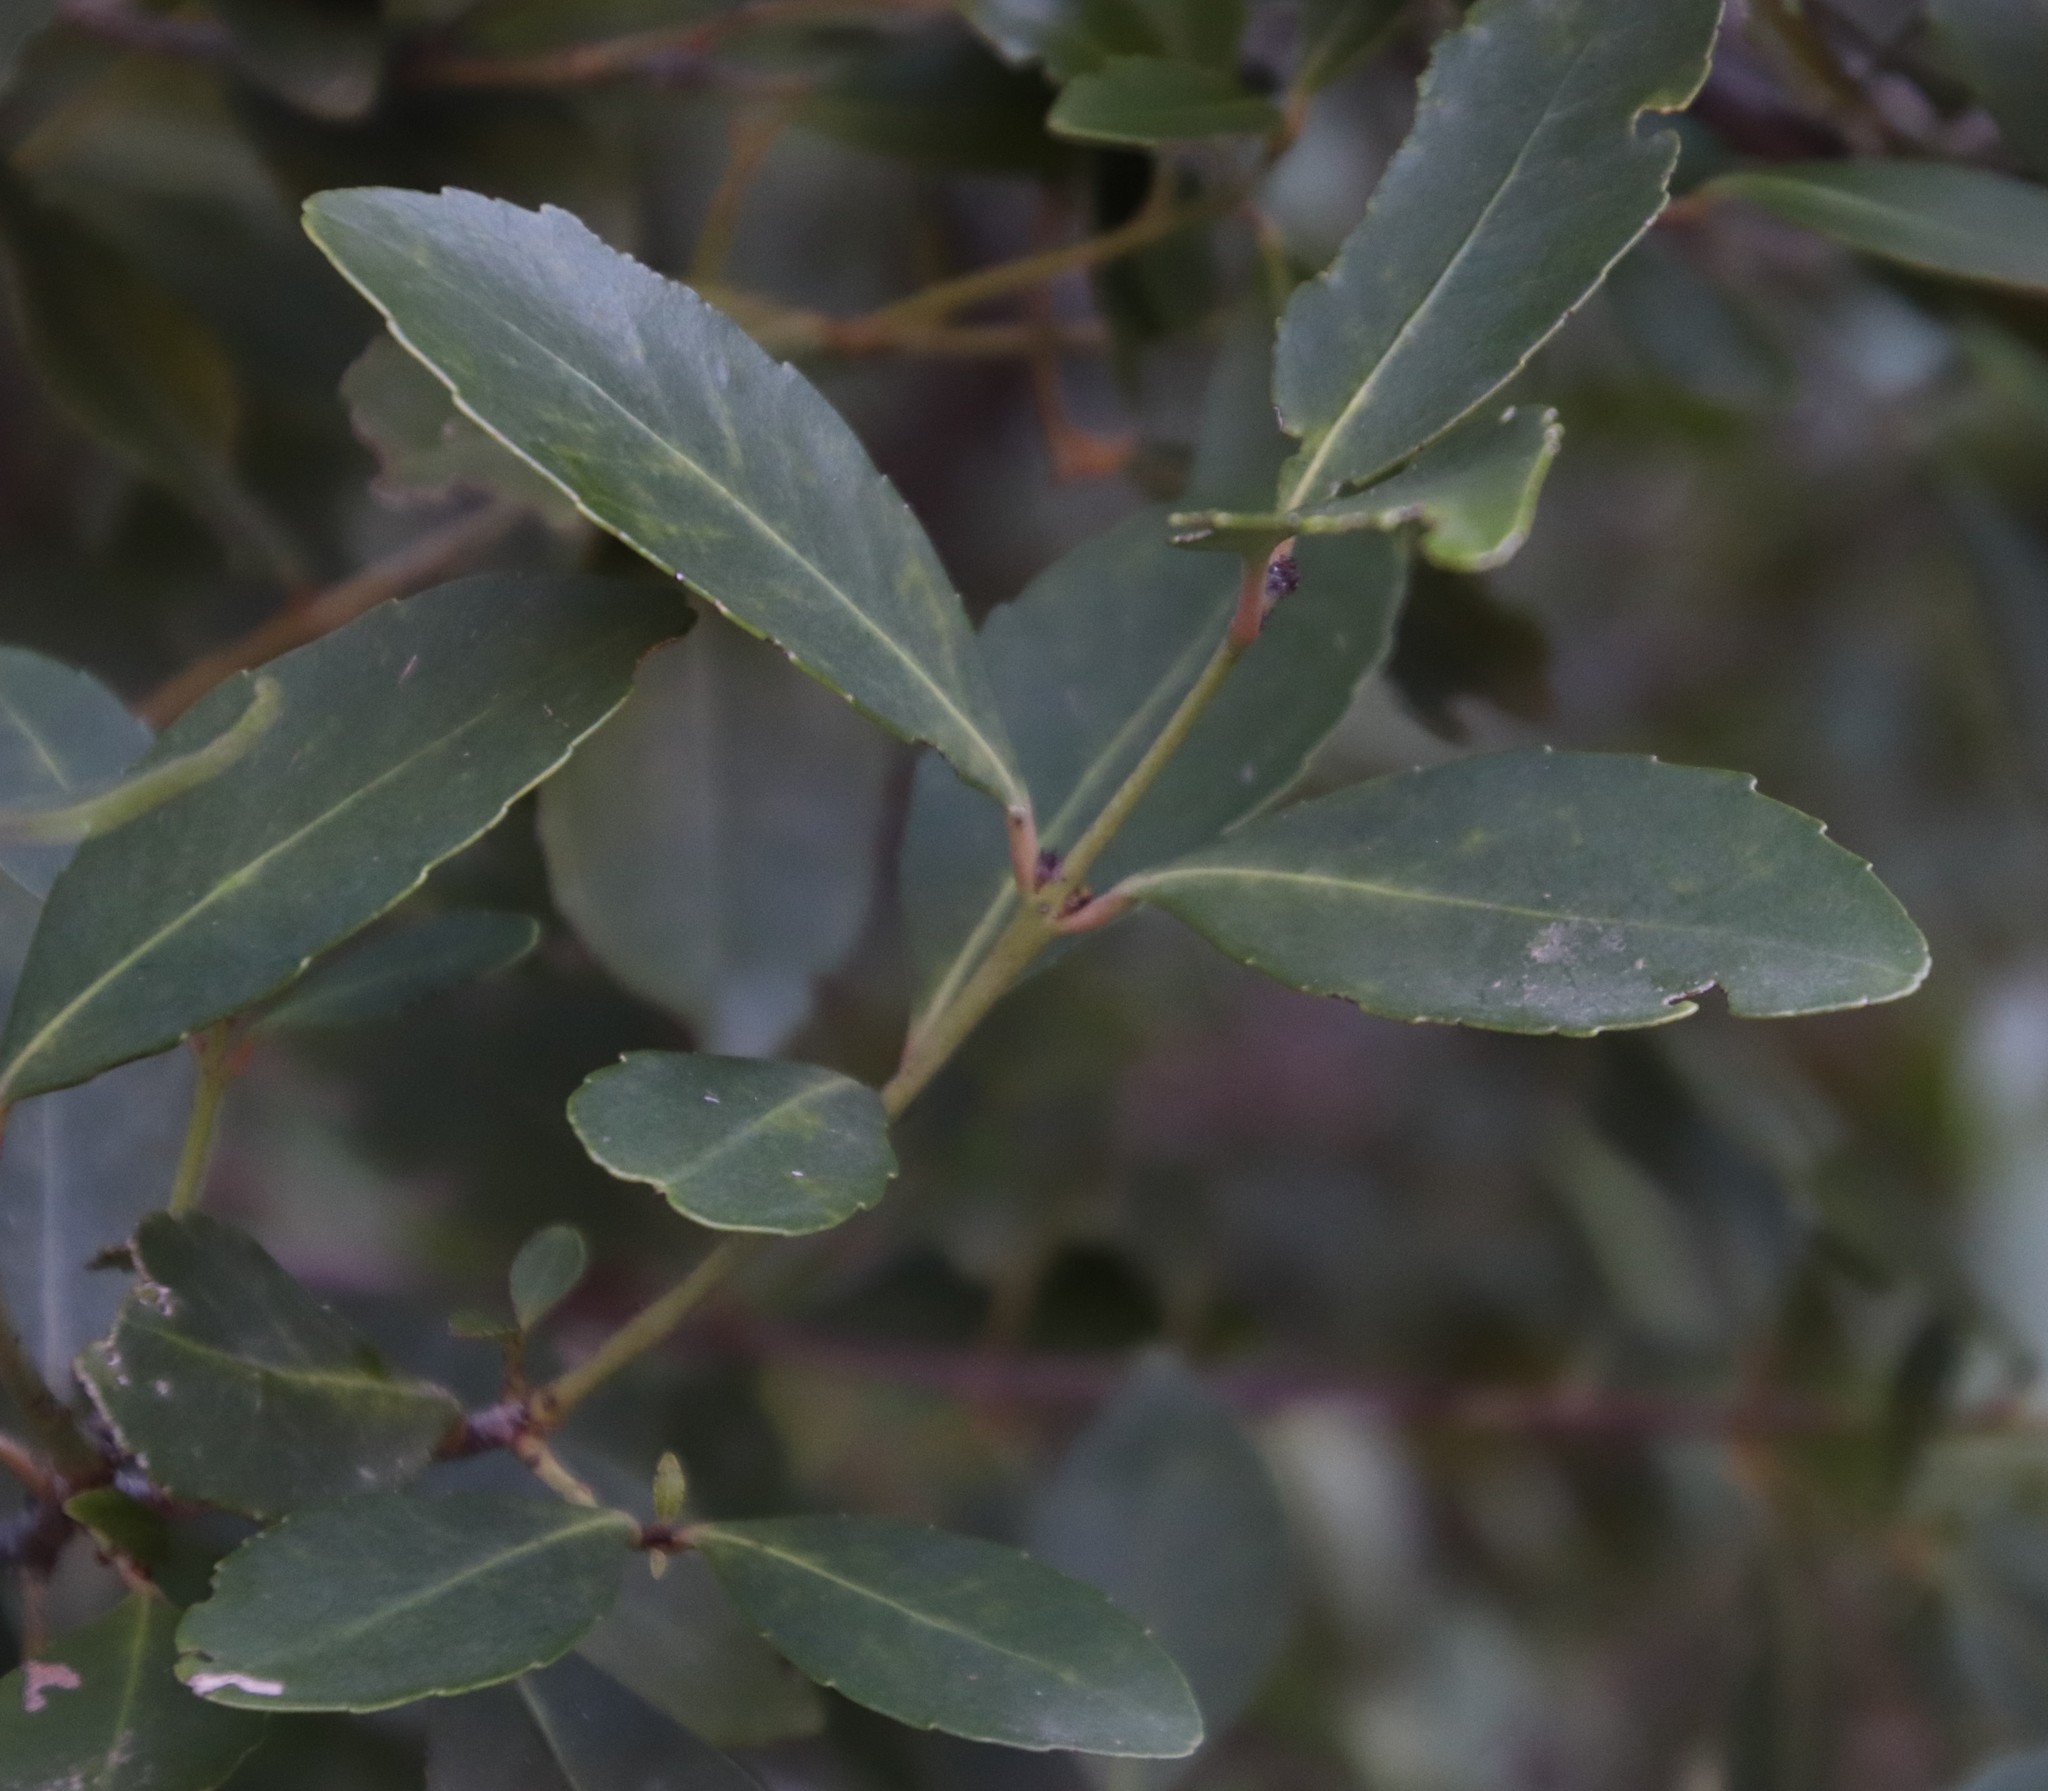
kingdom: Plantae
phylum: Tracheophyta
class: Magnoliopsida
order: Celastrales
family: Celastraceae
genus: Elaeodendron
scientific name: Elaeodendron schinoides
